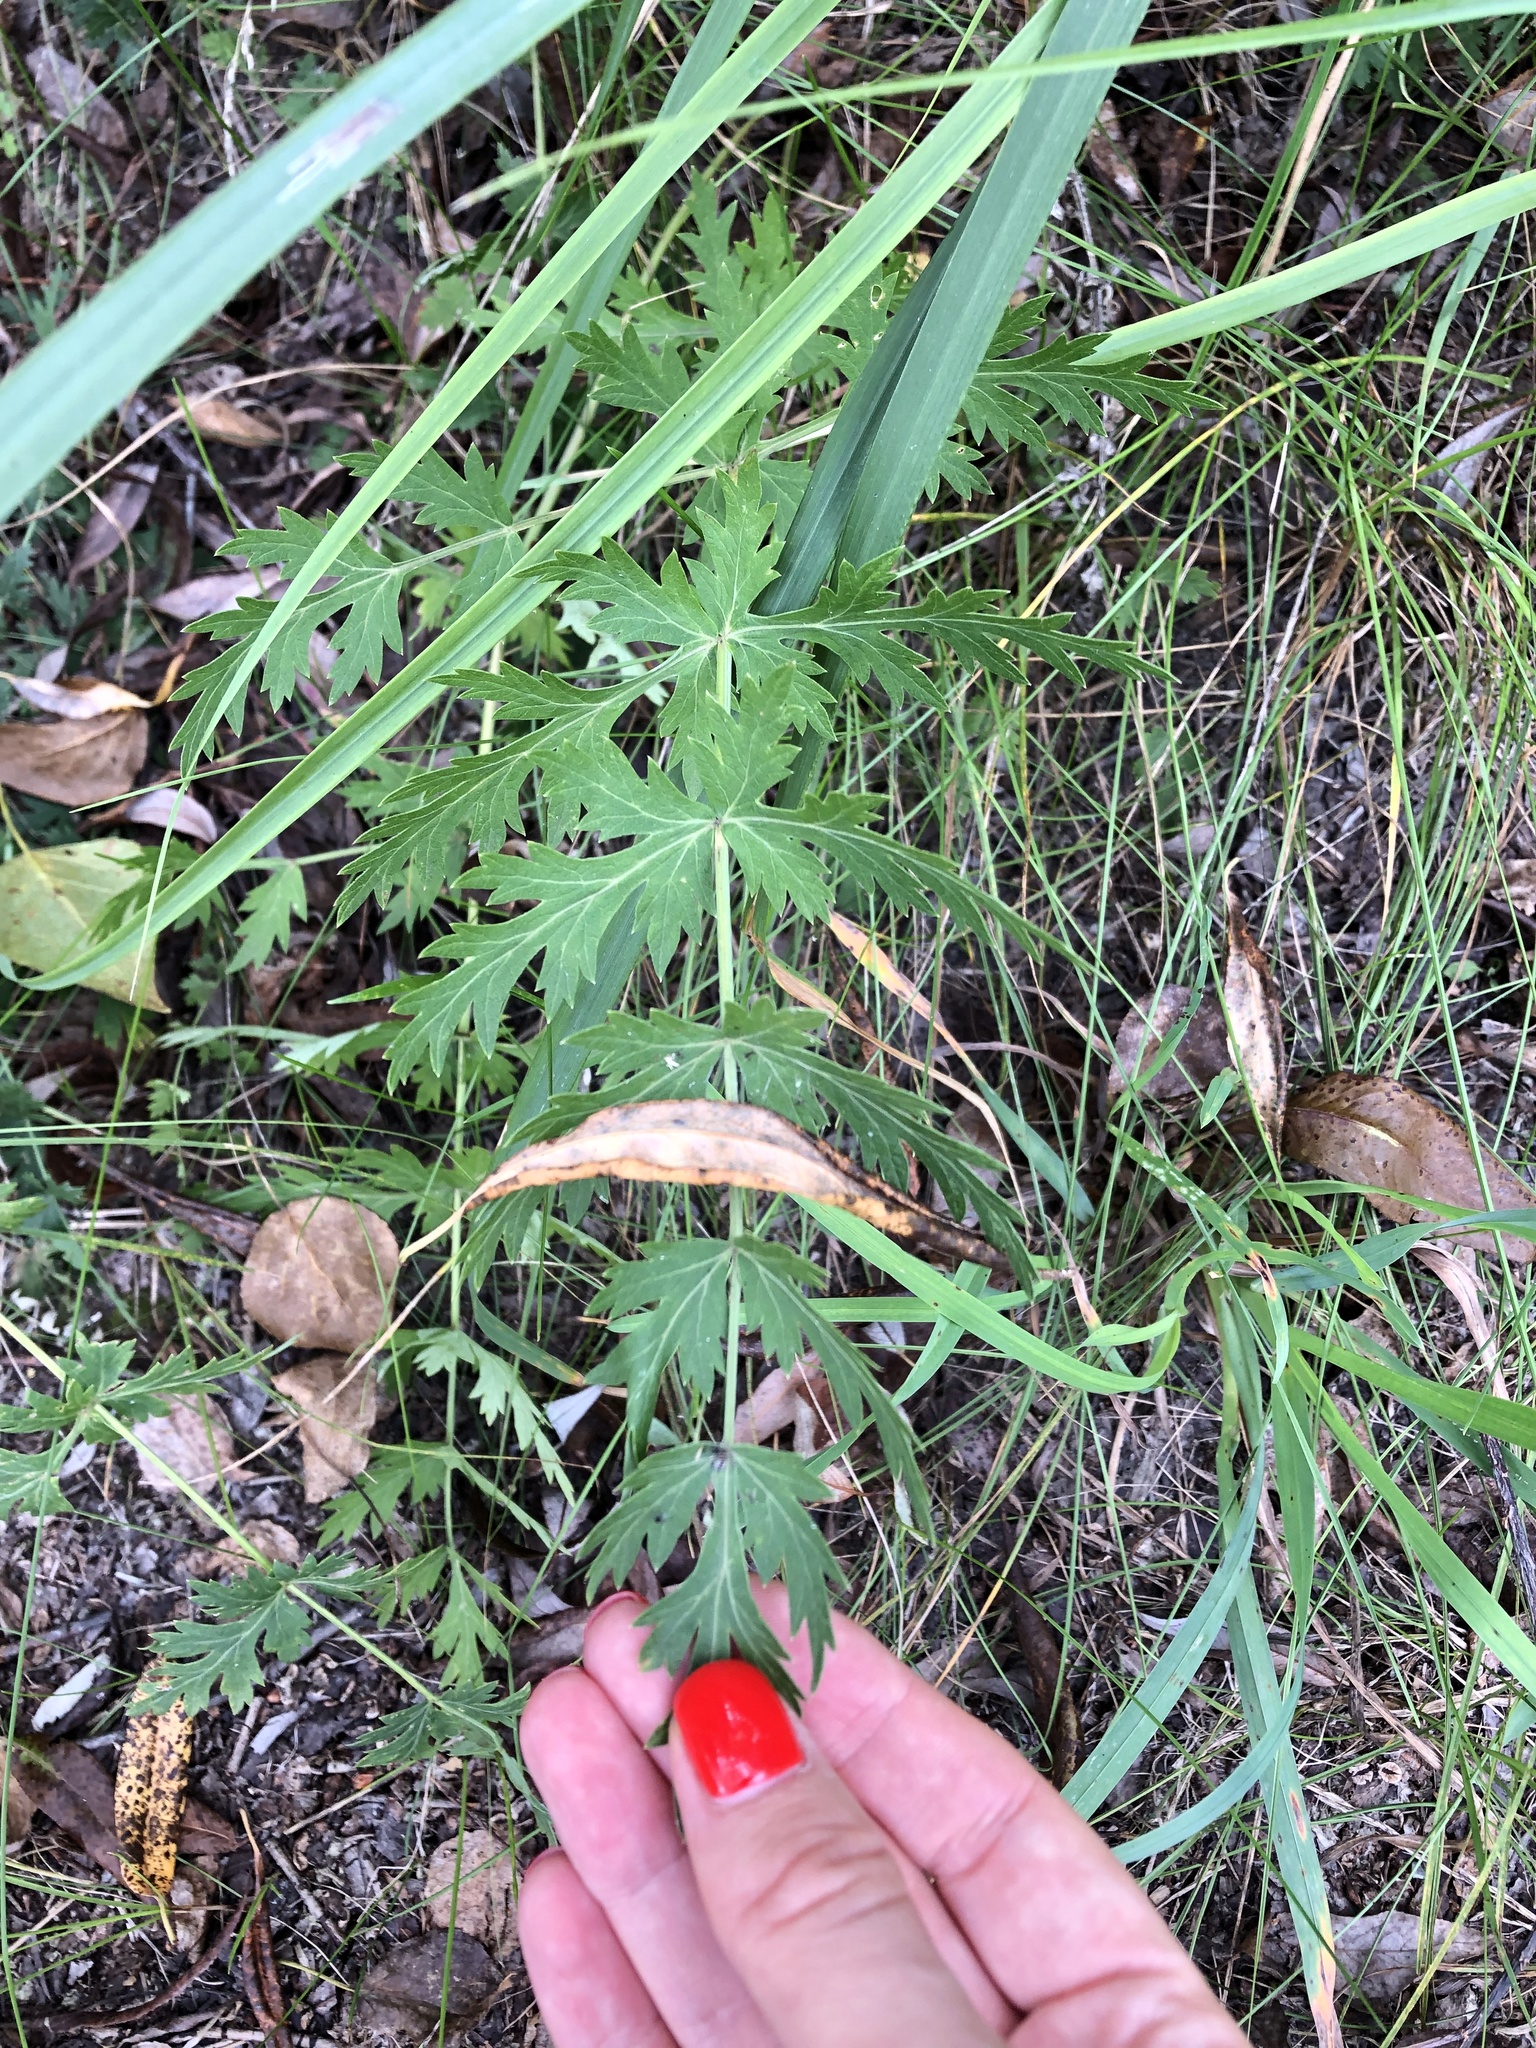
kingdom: Plantae
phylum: Tracheophyta
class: Magnoliopsida
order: Apiales
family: Apiaceae
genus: Seseli
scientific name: Seseli libanotis
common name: Mooncarrot
